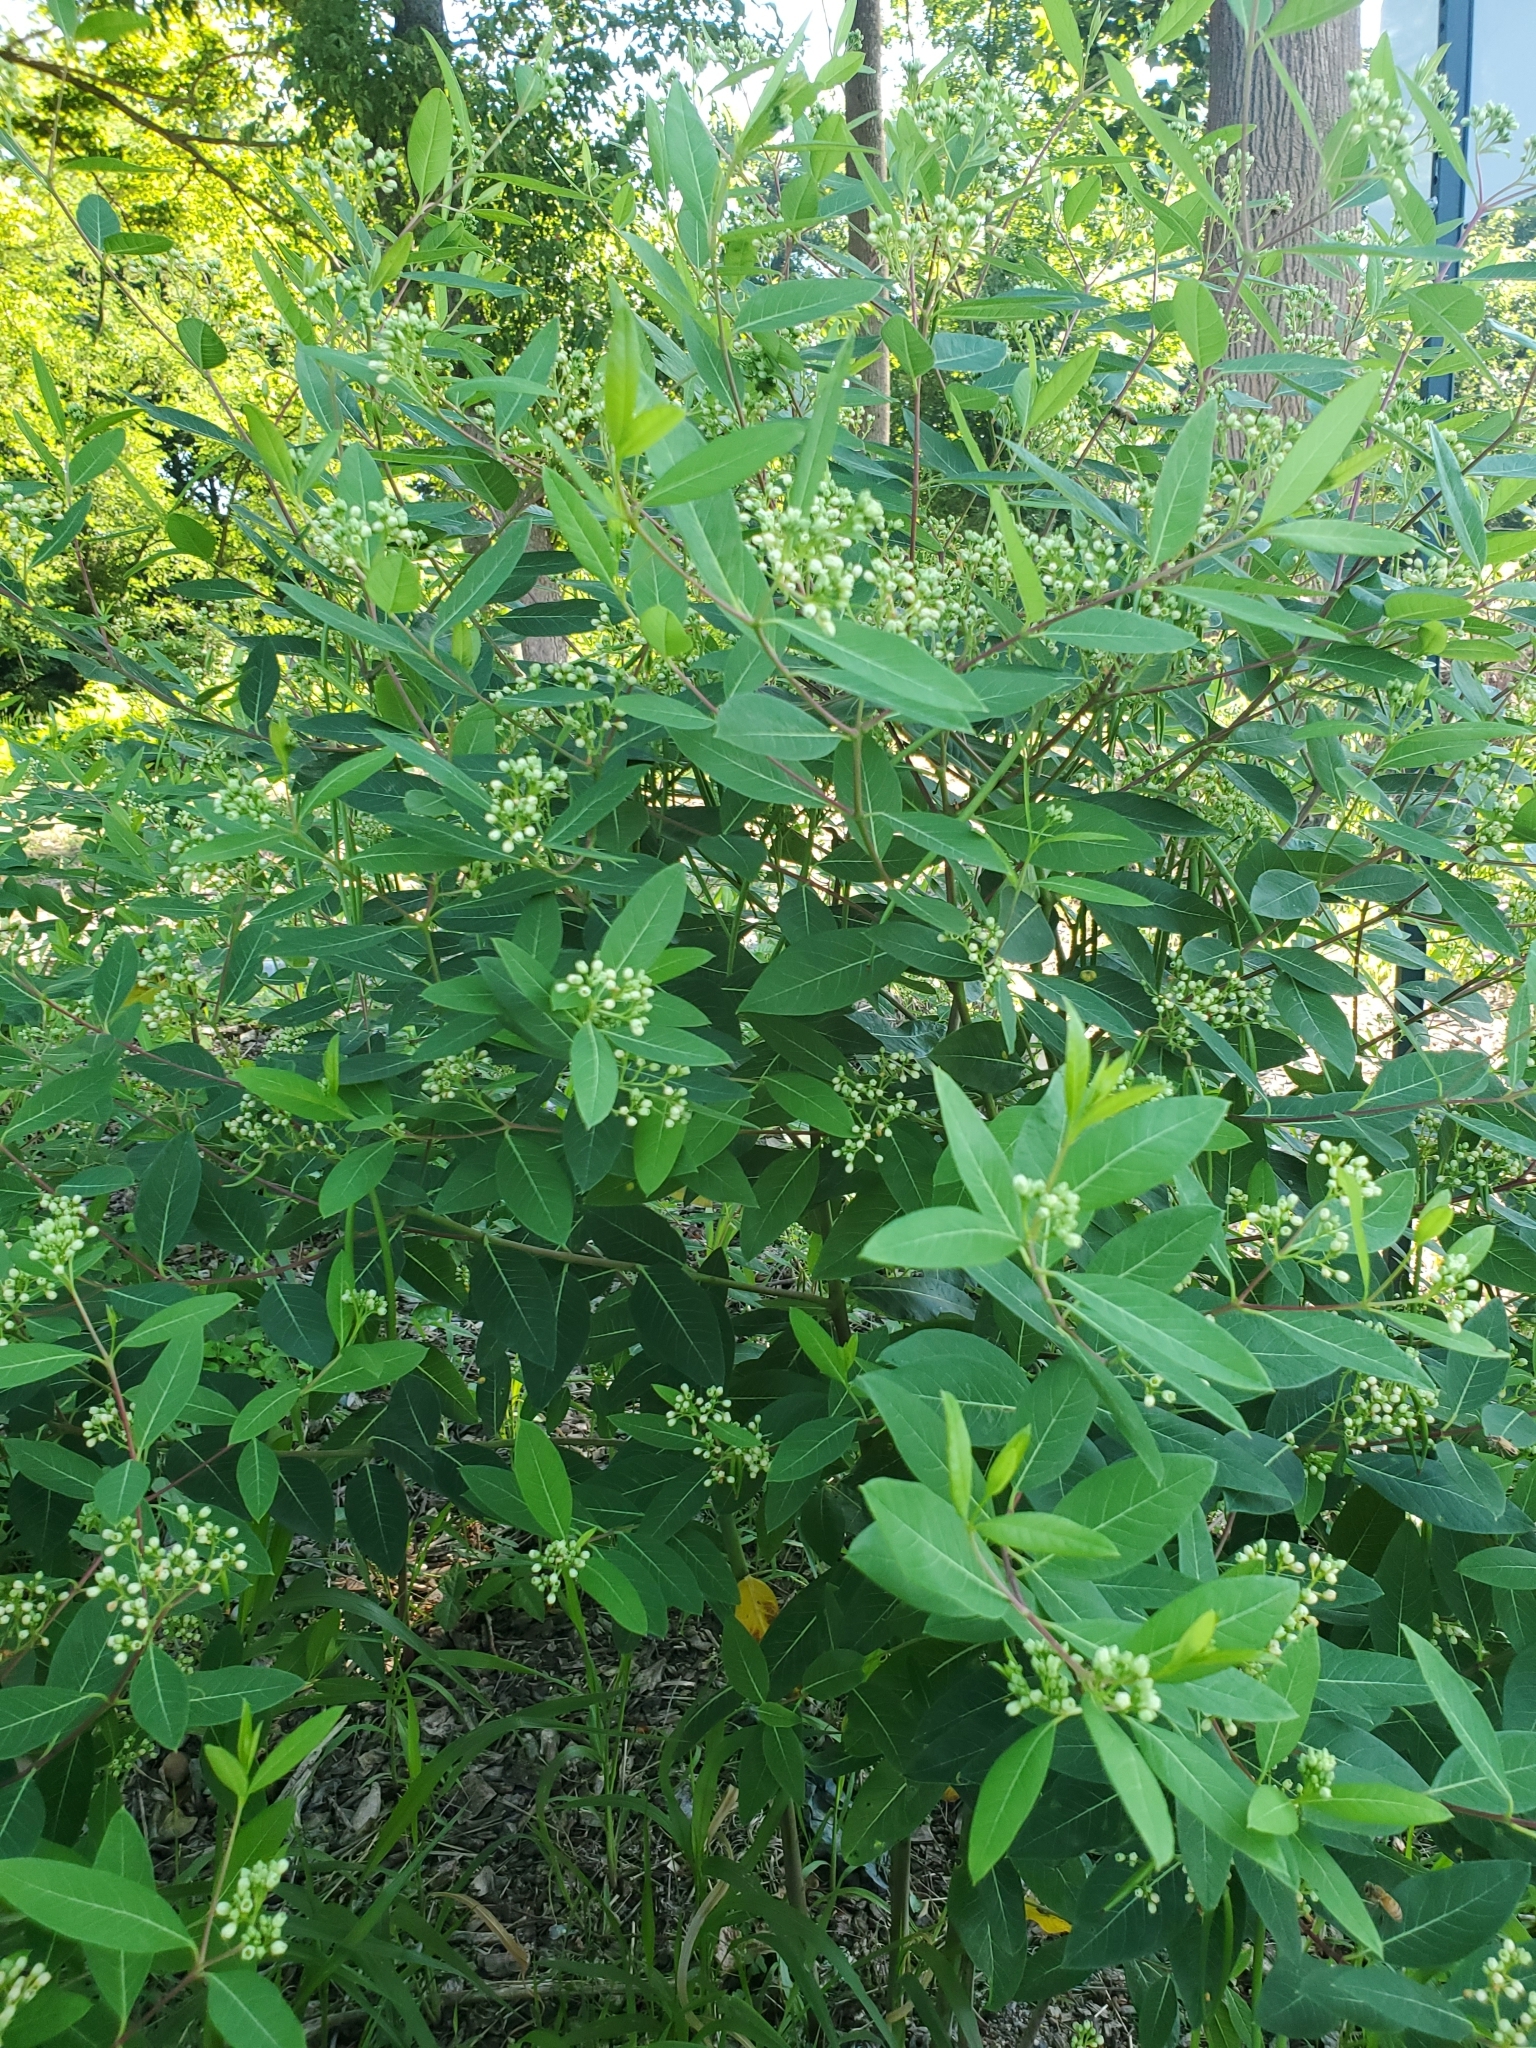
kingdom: Plantae
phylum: Tracheophyta
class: Magnoliopsida
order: Gentianales
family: Apocynaceae
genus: Apocynum
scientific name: Apocynum cannabinum
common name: Hemp dogbane
